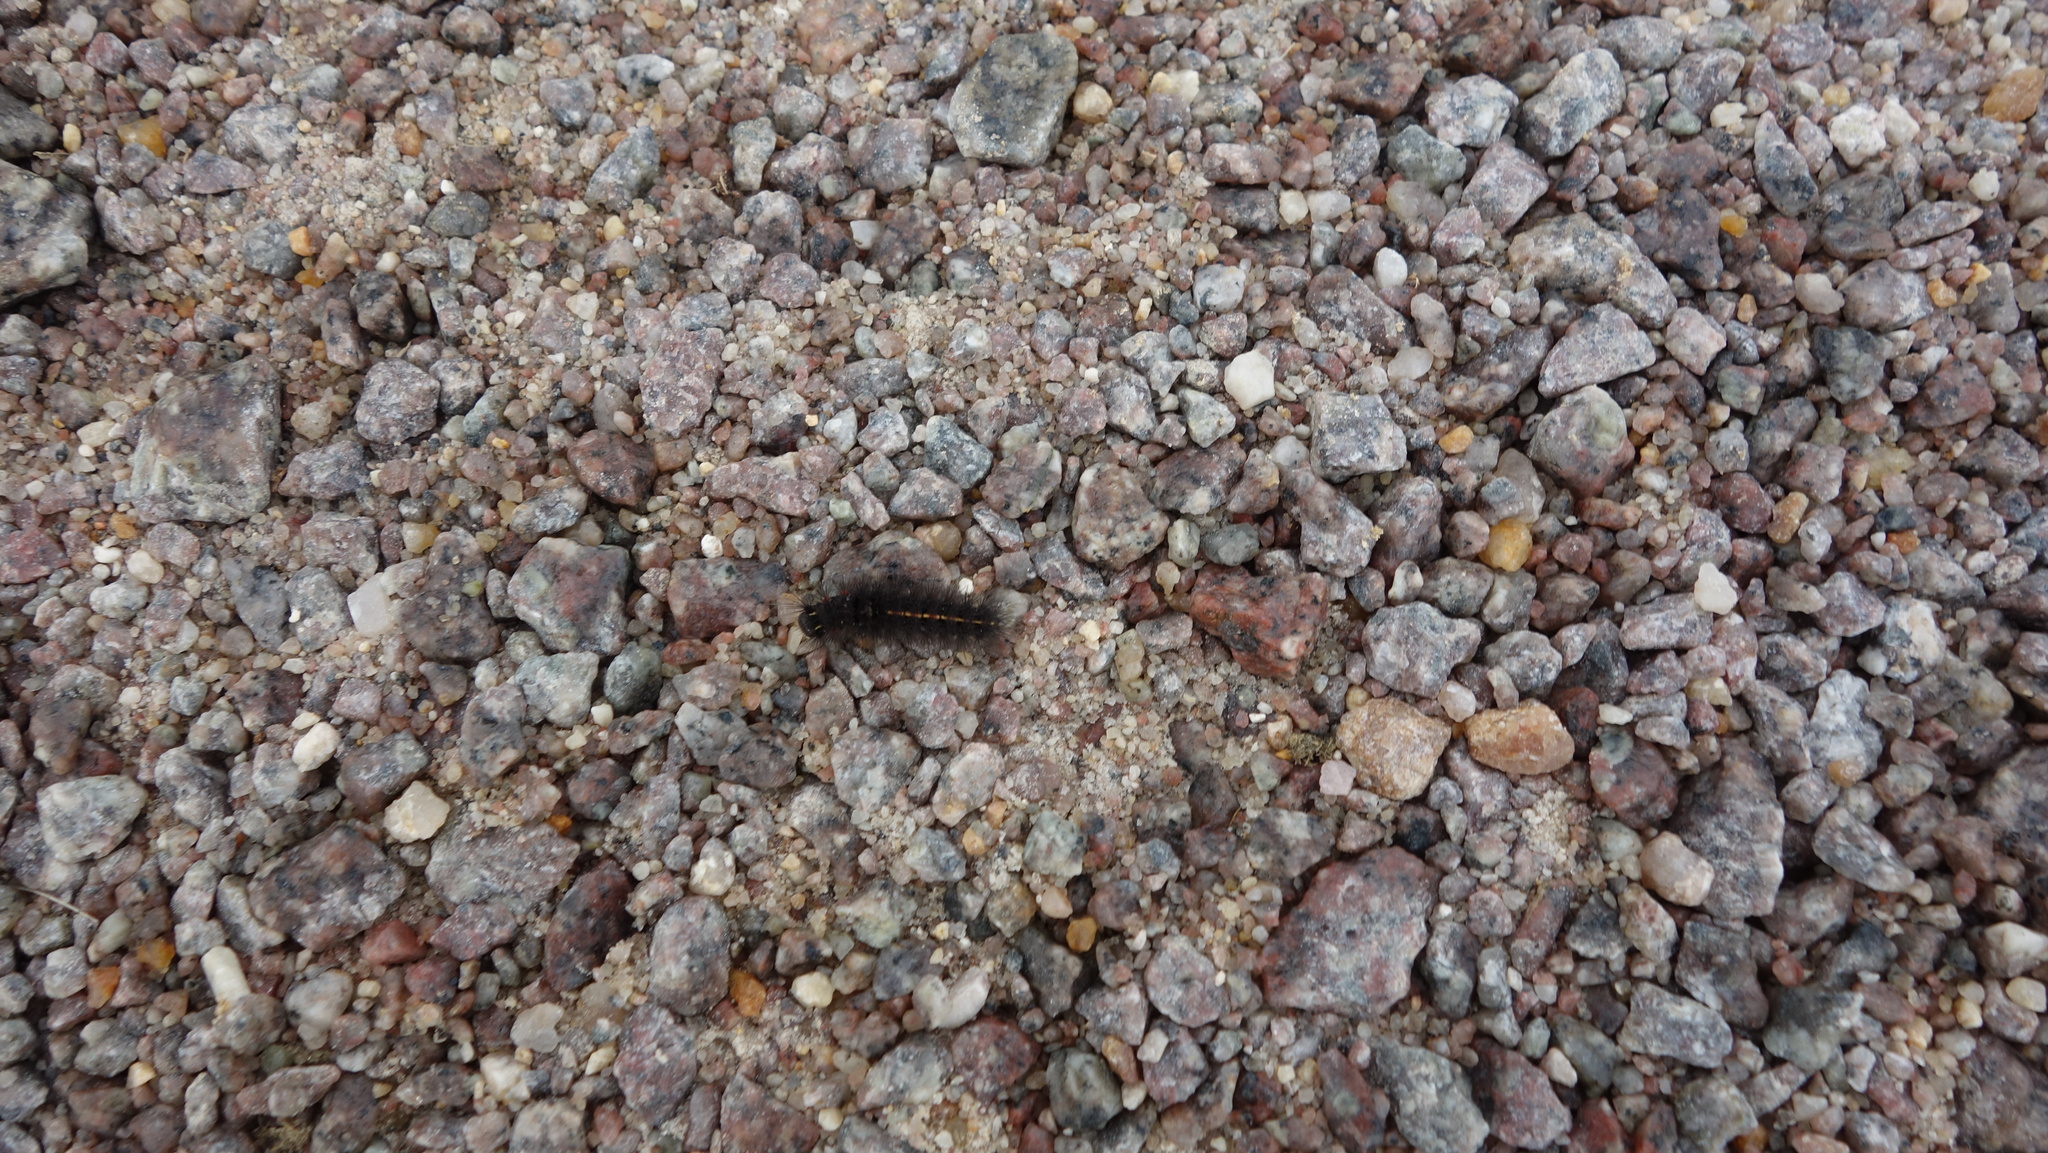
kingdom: Animalia
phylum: Arthropoda
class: Insecta
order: Lepidoptera
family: Erebidae
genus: Nepita
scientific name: Nepita conferta
